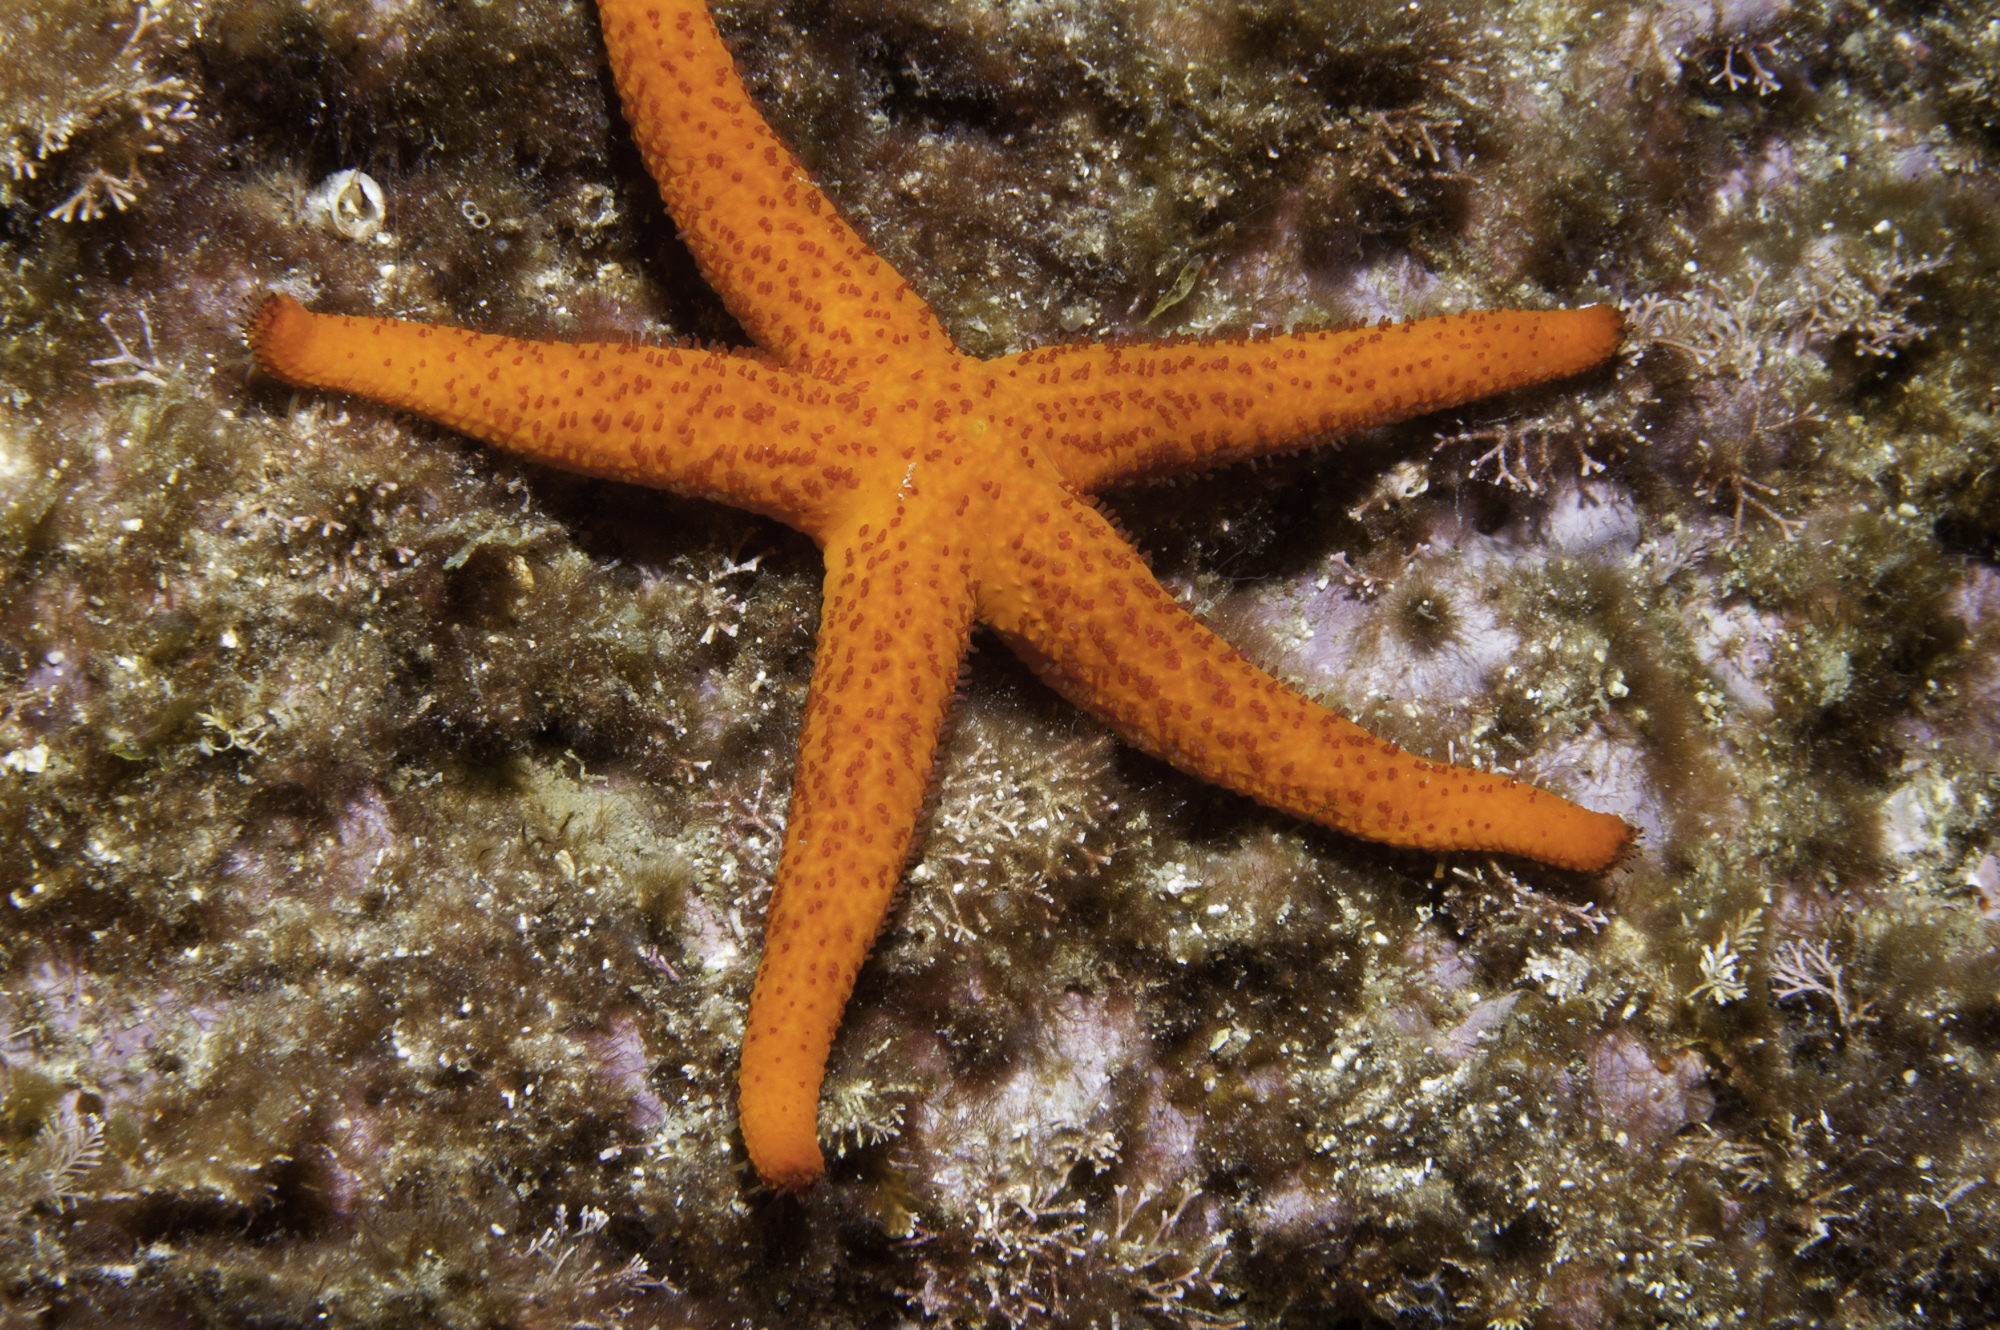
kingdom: Animalia
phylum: Echinodermata
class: Asteroidea
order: Spinulosida
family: Echinasteridae
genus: Echinaster
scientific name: Echinaster sepositus
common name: Red starfish
